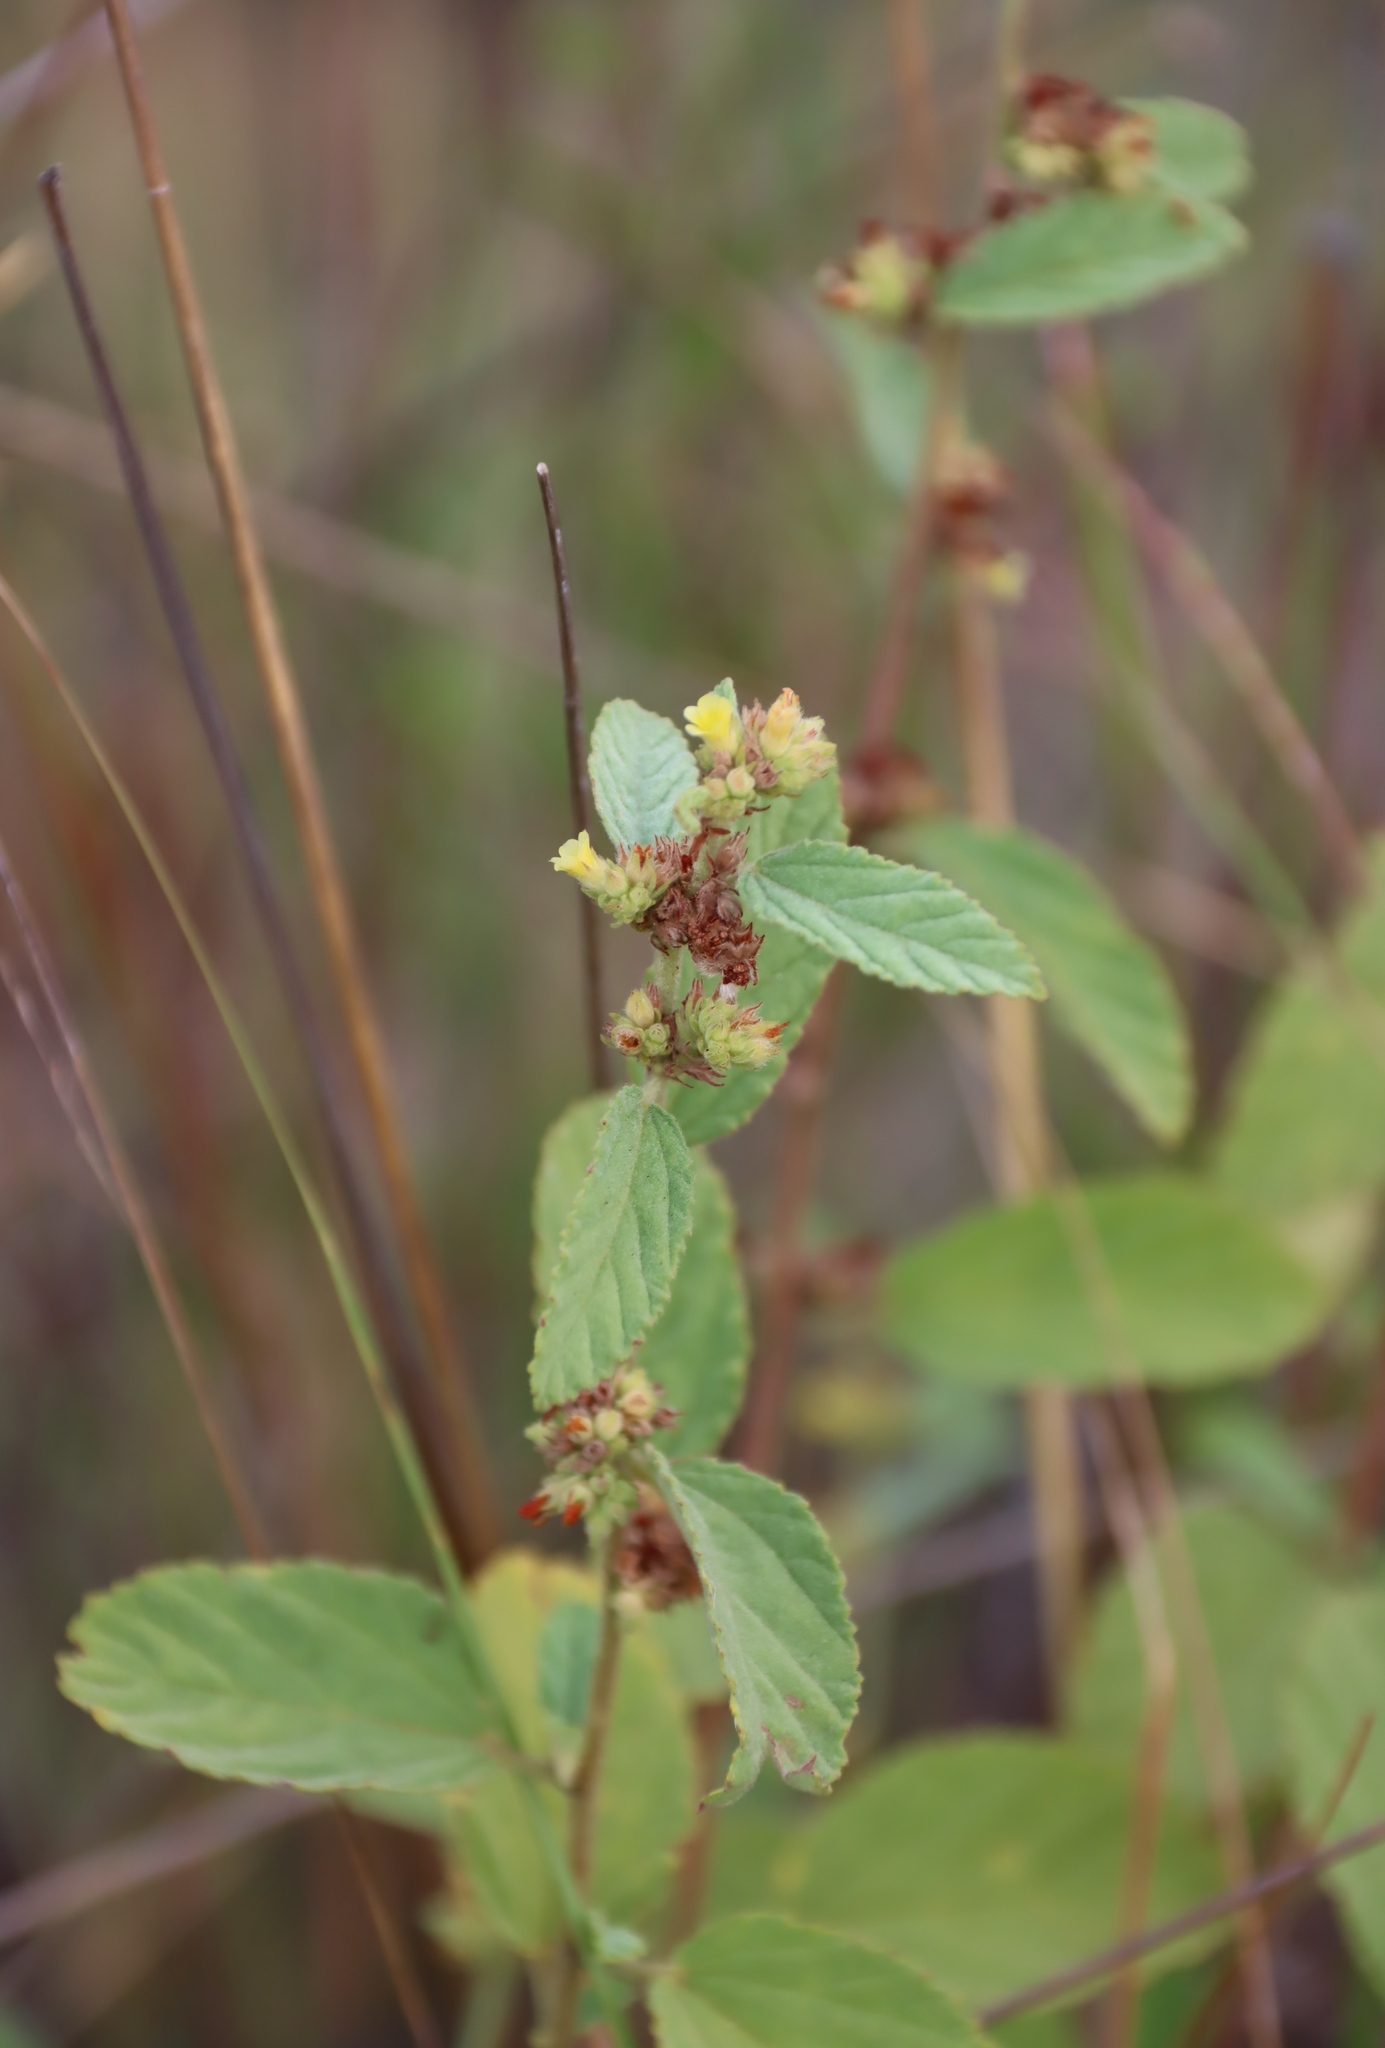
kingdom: Plantae
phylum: Tracheophyta
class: Magnoliopsida
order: Malvales
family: Malvaceae
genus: Waltheria
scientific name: Waltheria indica
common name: Leather-coat
